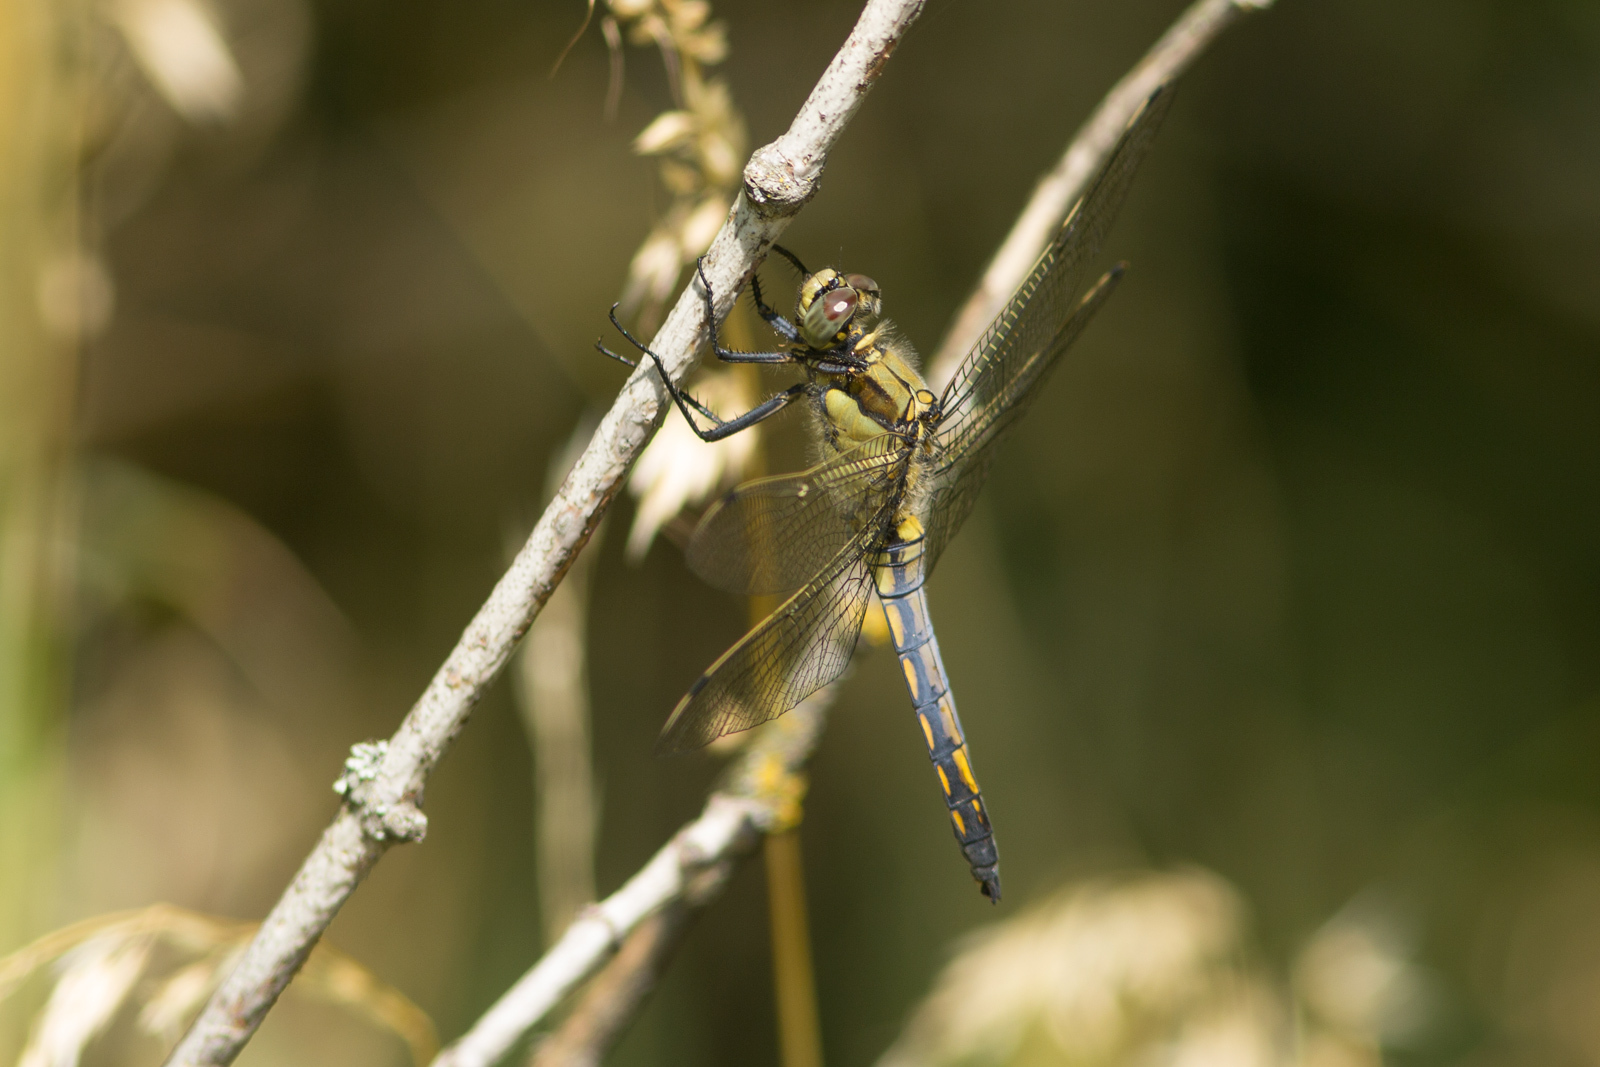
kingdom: Animalia
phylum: Arthropoda
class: Insecta
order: Odonata
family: Libellulidae
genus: Orthetrum
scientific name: Orthetrum cancellatum
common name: Black-tailed skimmer
